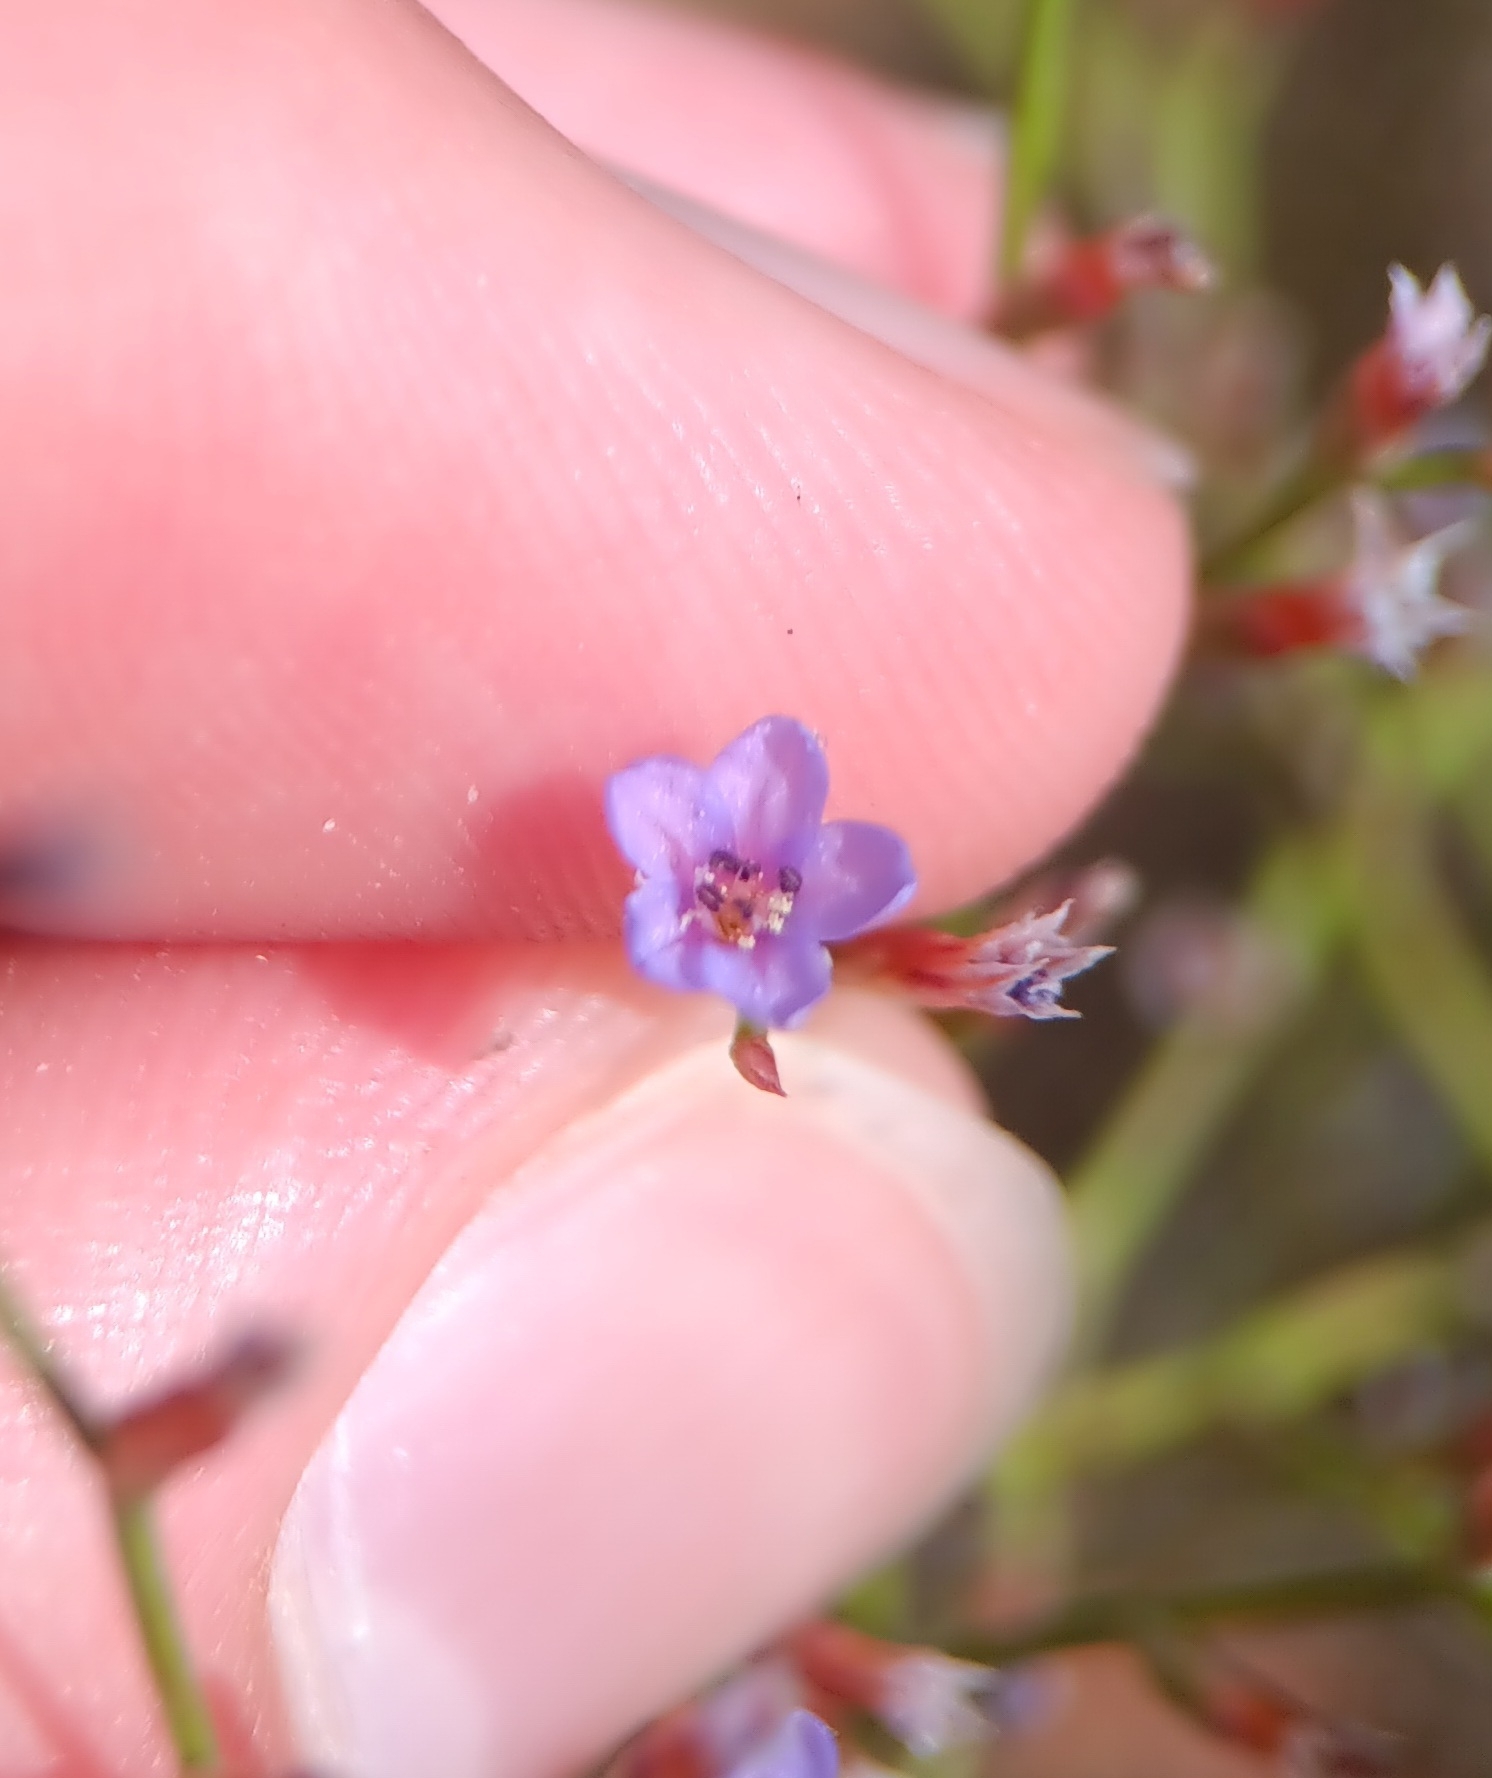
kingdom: Plantae
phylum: Tracheophyta
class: Magnoliopsida
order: Caryophyllales
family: Plumbaginaceae
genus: Limonium
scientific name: Limonium carolinianum
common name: Carolina sea lavender
